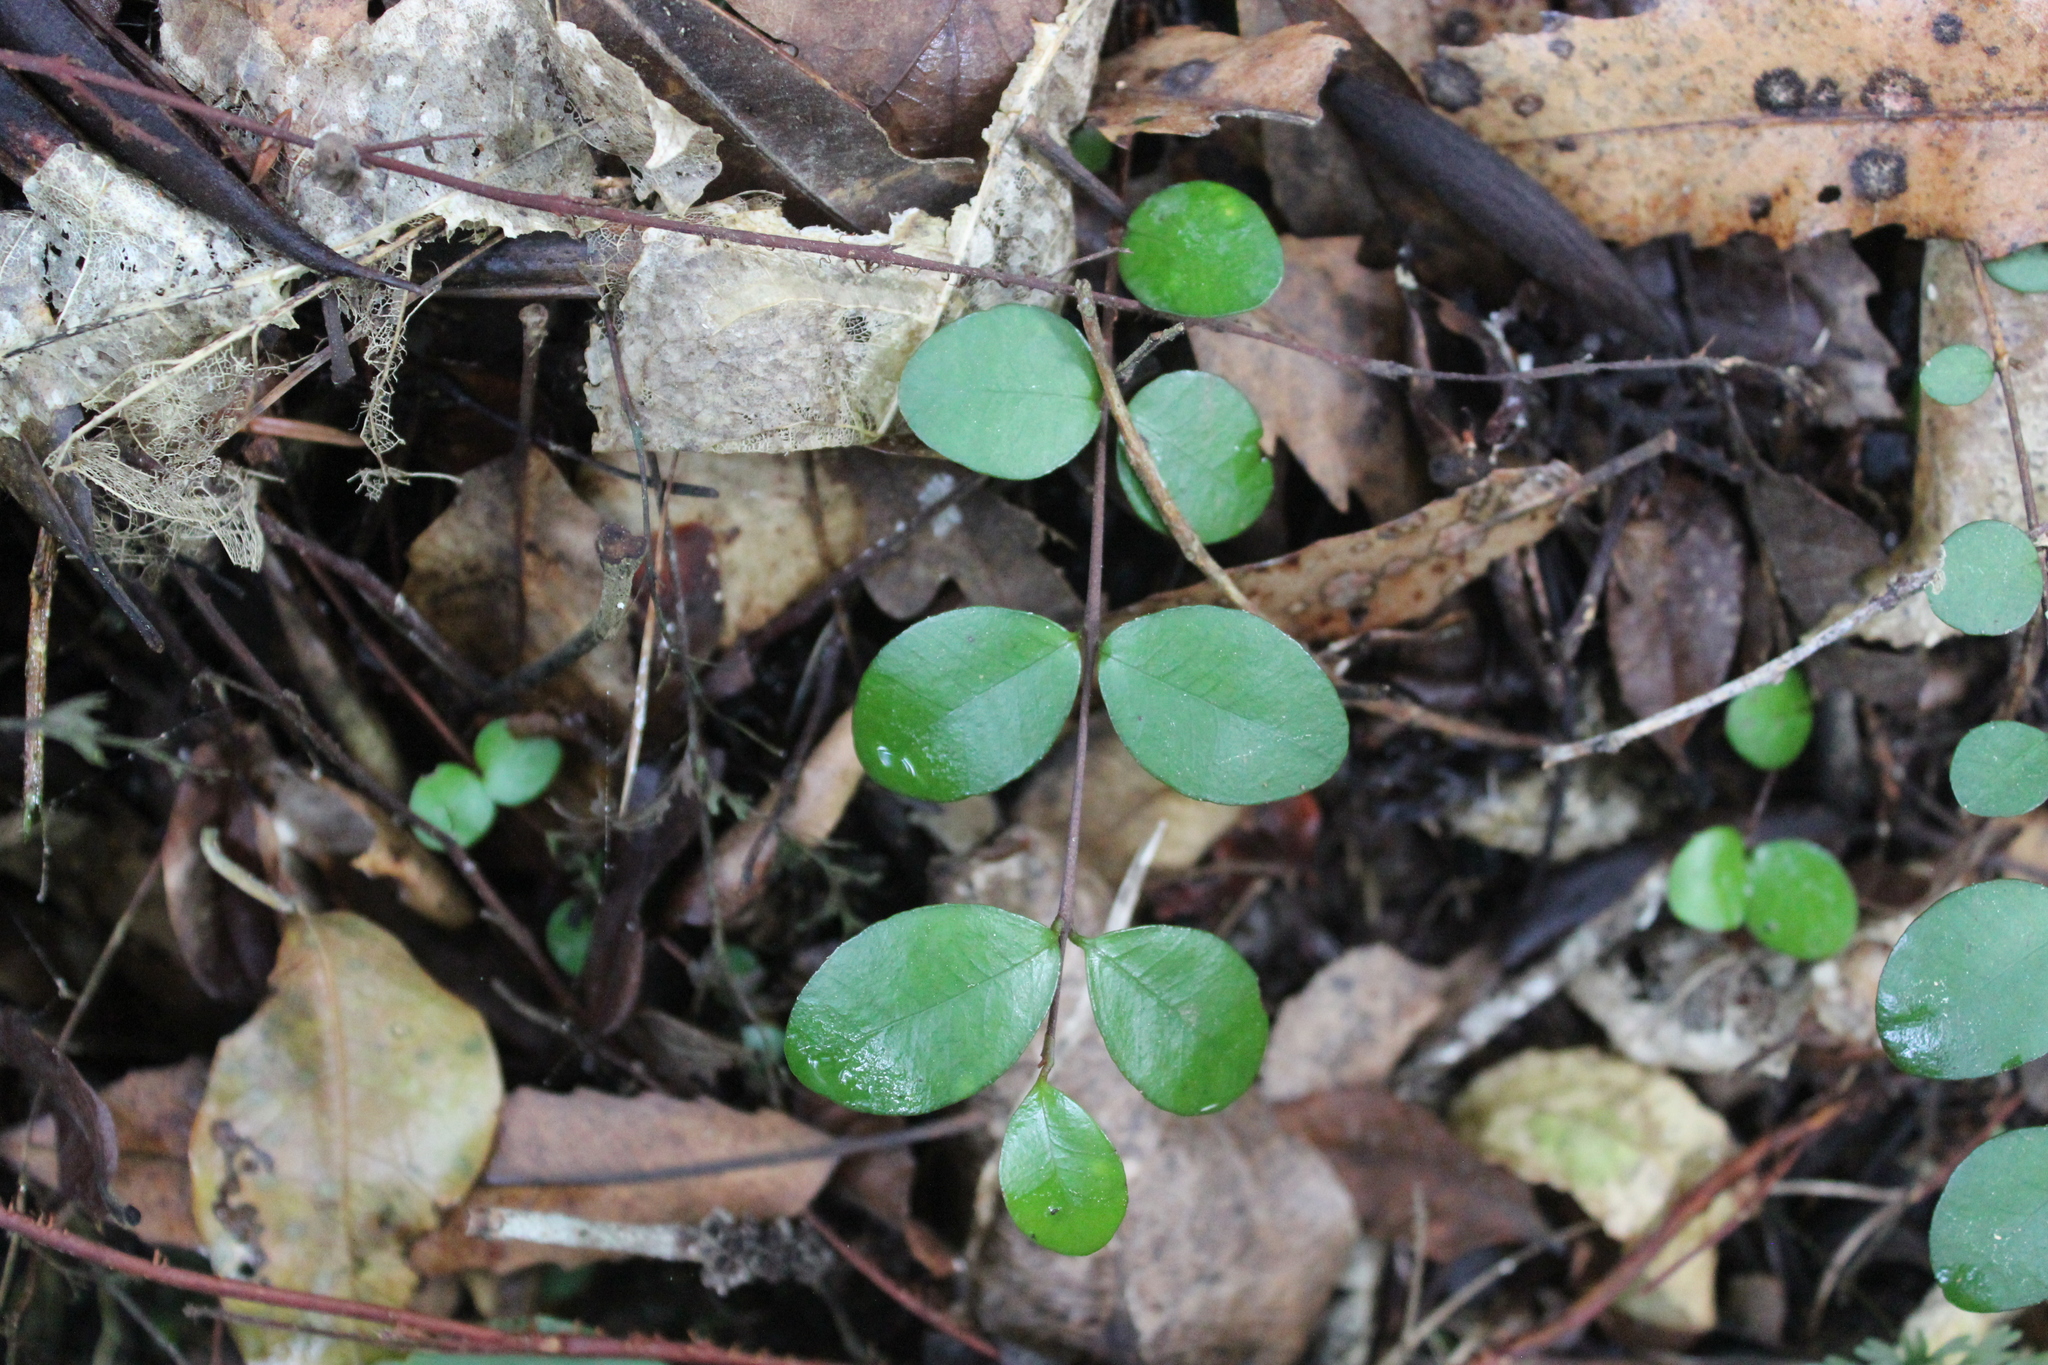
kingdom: Plantae
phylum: Tracheophyta
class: Magnoliopsida
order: Myrtales
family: Myrtaceae
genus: Metrosideros
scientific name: Metrosideros fulgens
